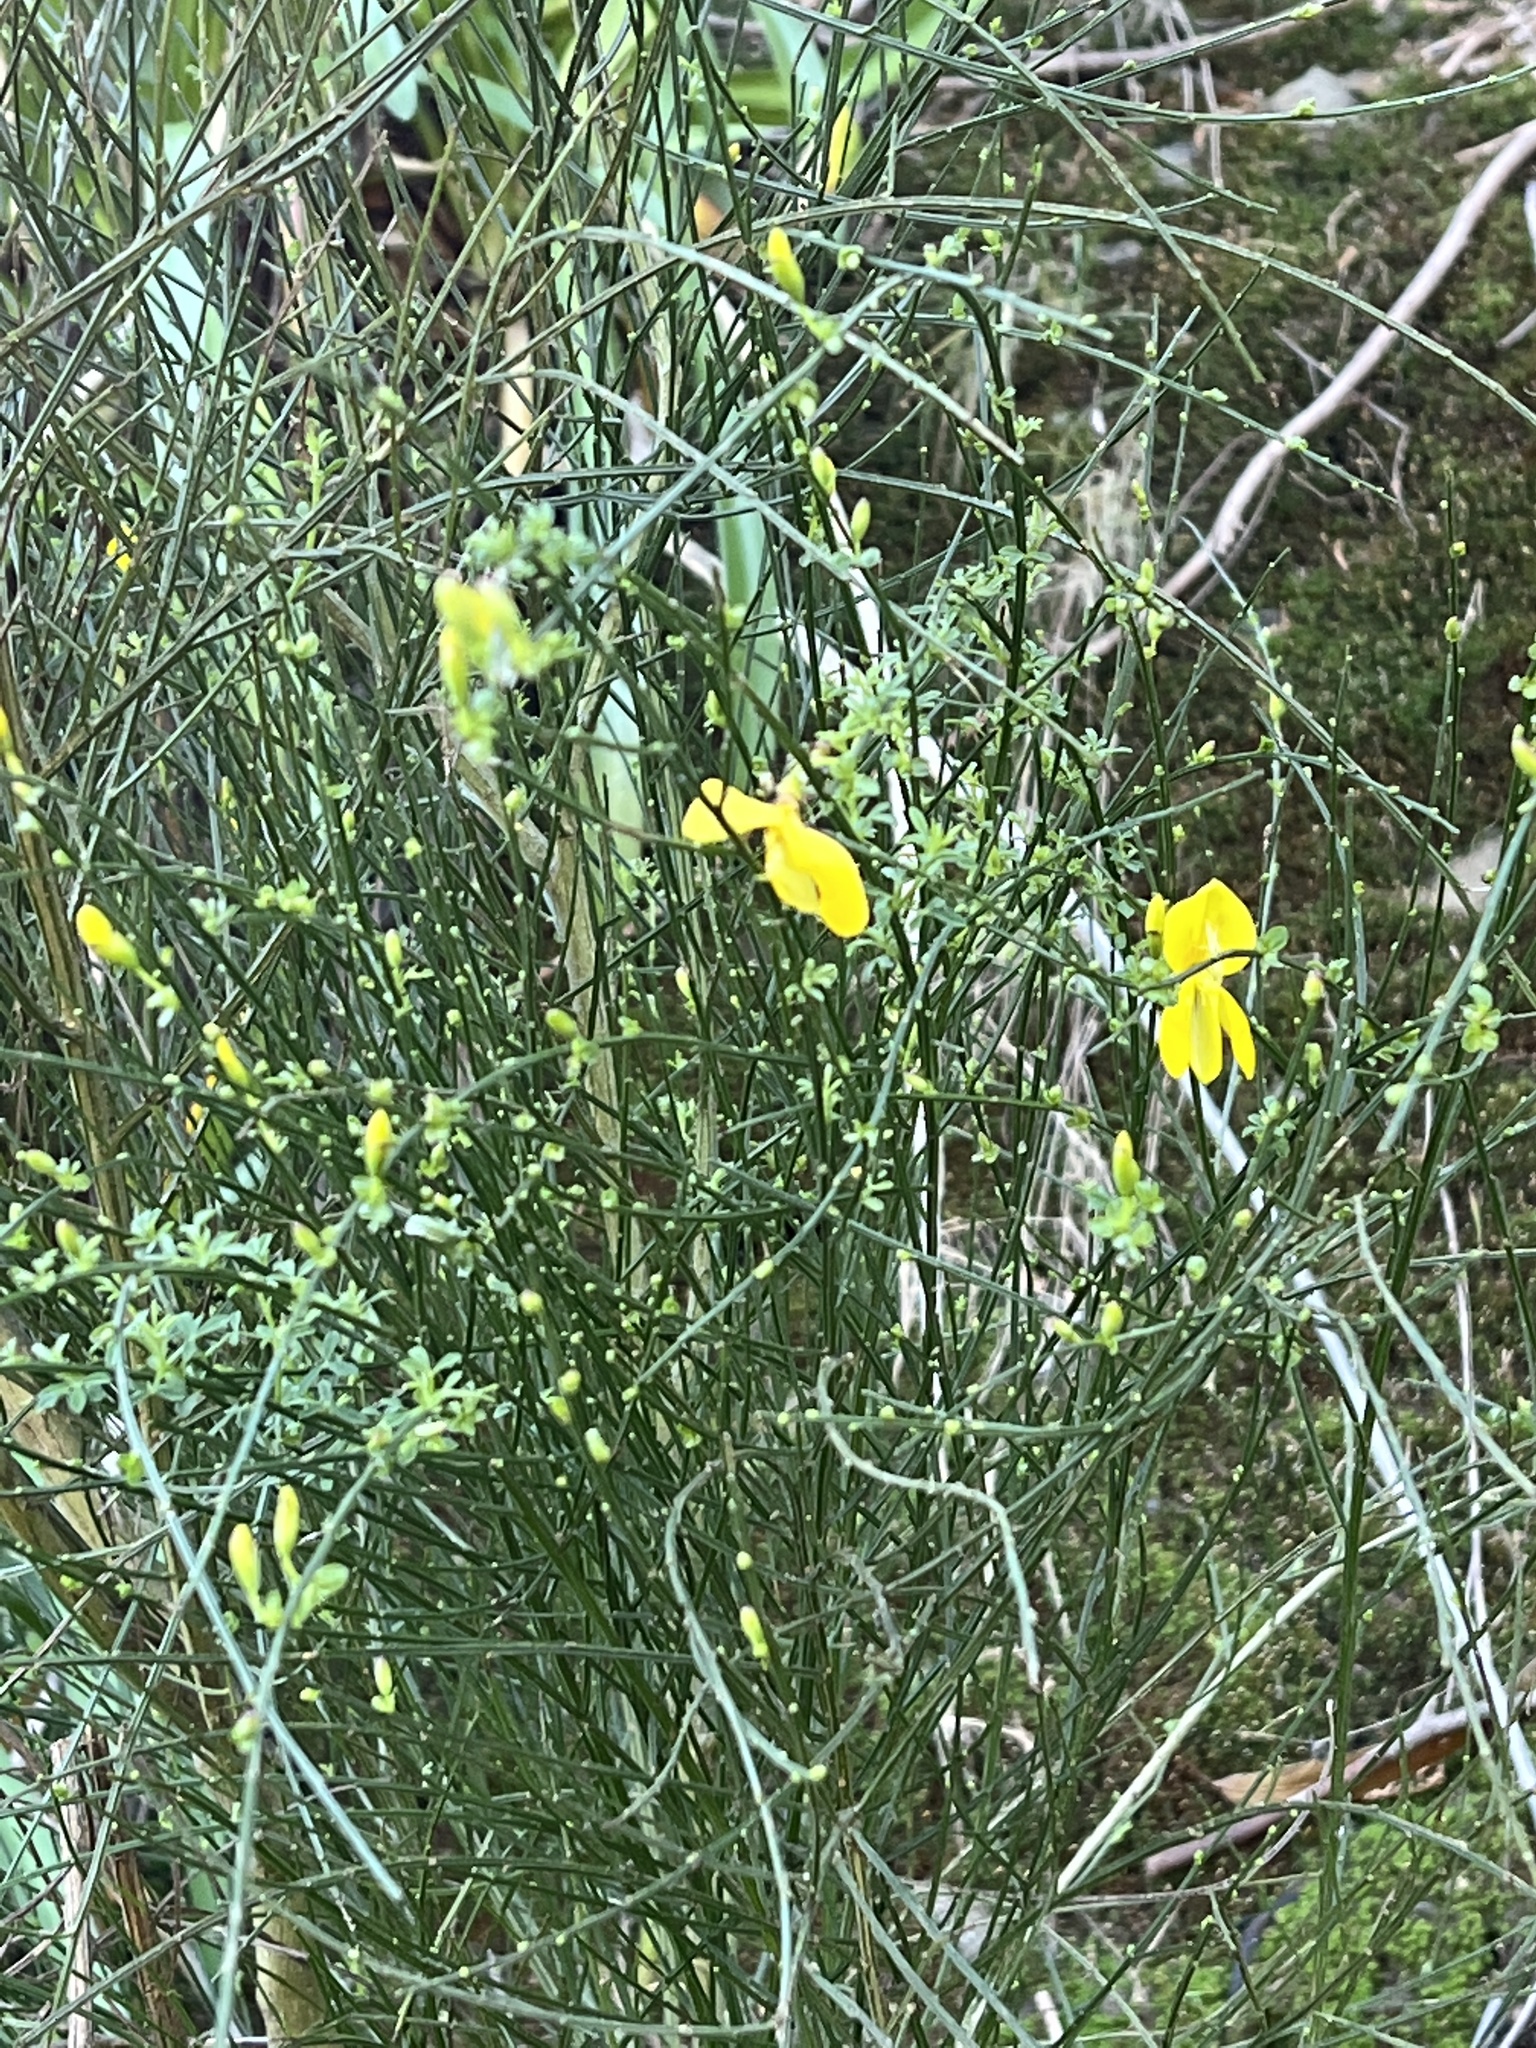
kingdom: Plantae
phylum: Tracheophyta
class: Magnoliopsida
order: Fabales
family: Fabaceae
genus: Cytisus
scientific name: Cytisus scoparius
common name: Scotch broom
